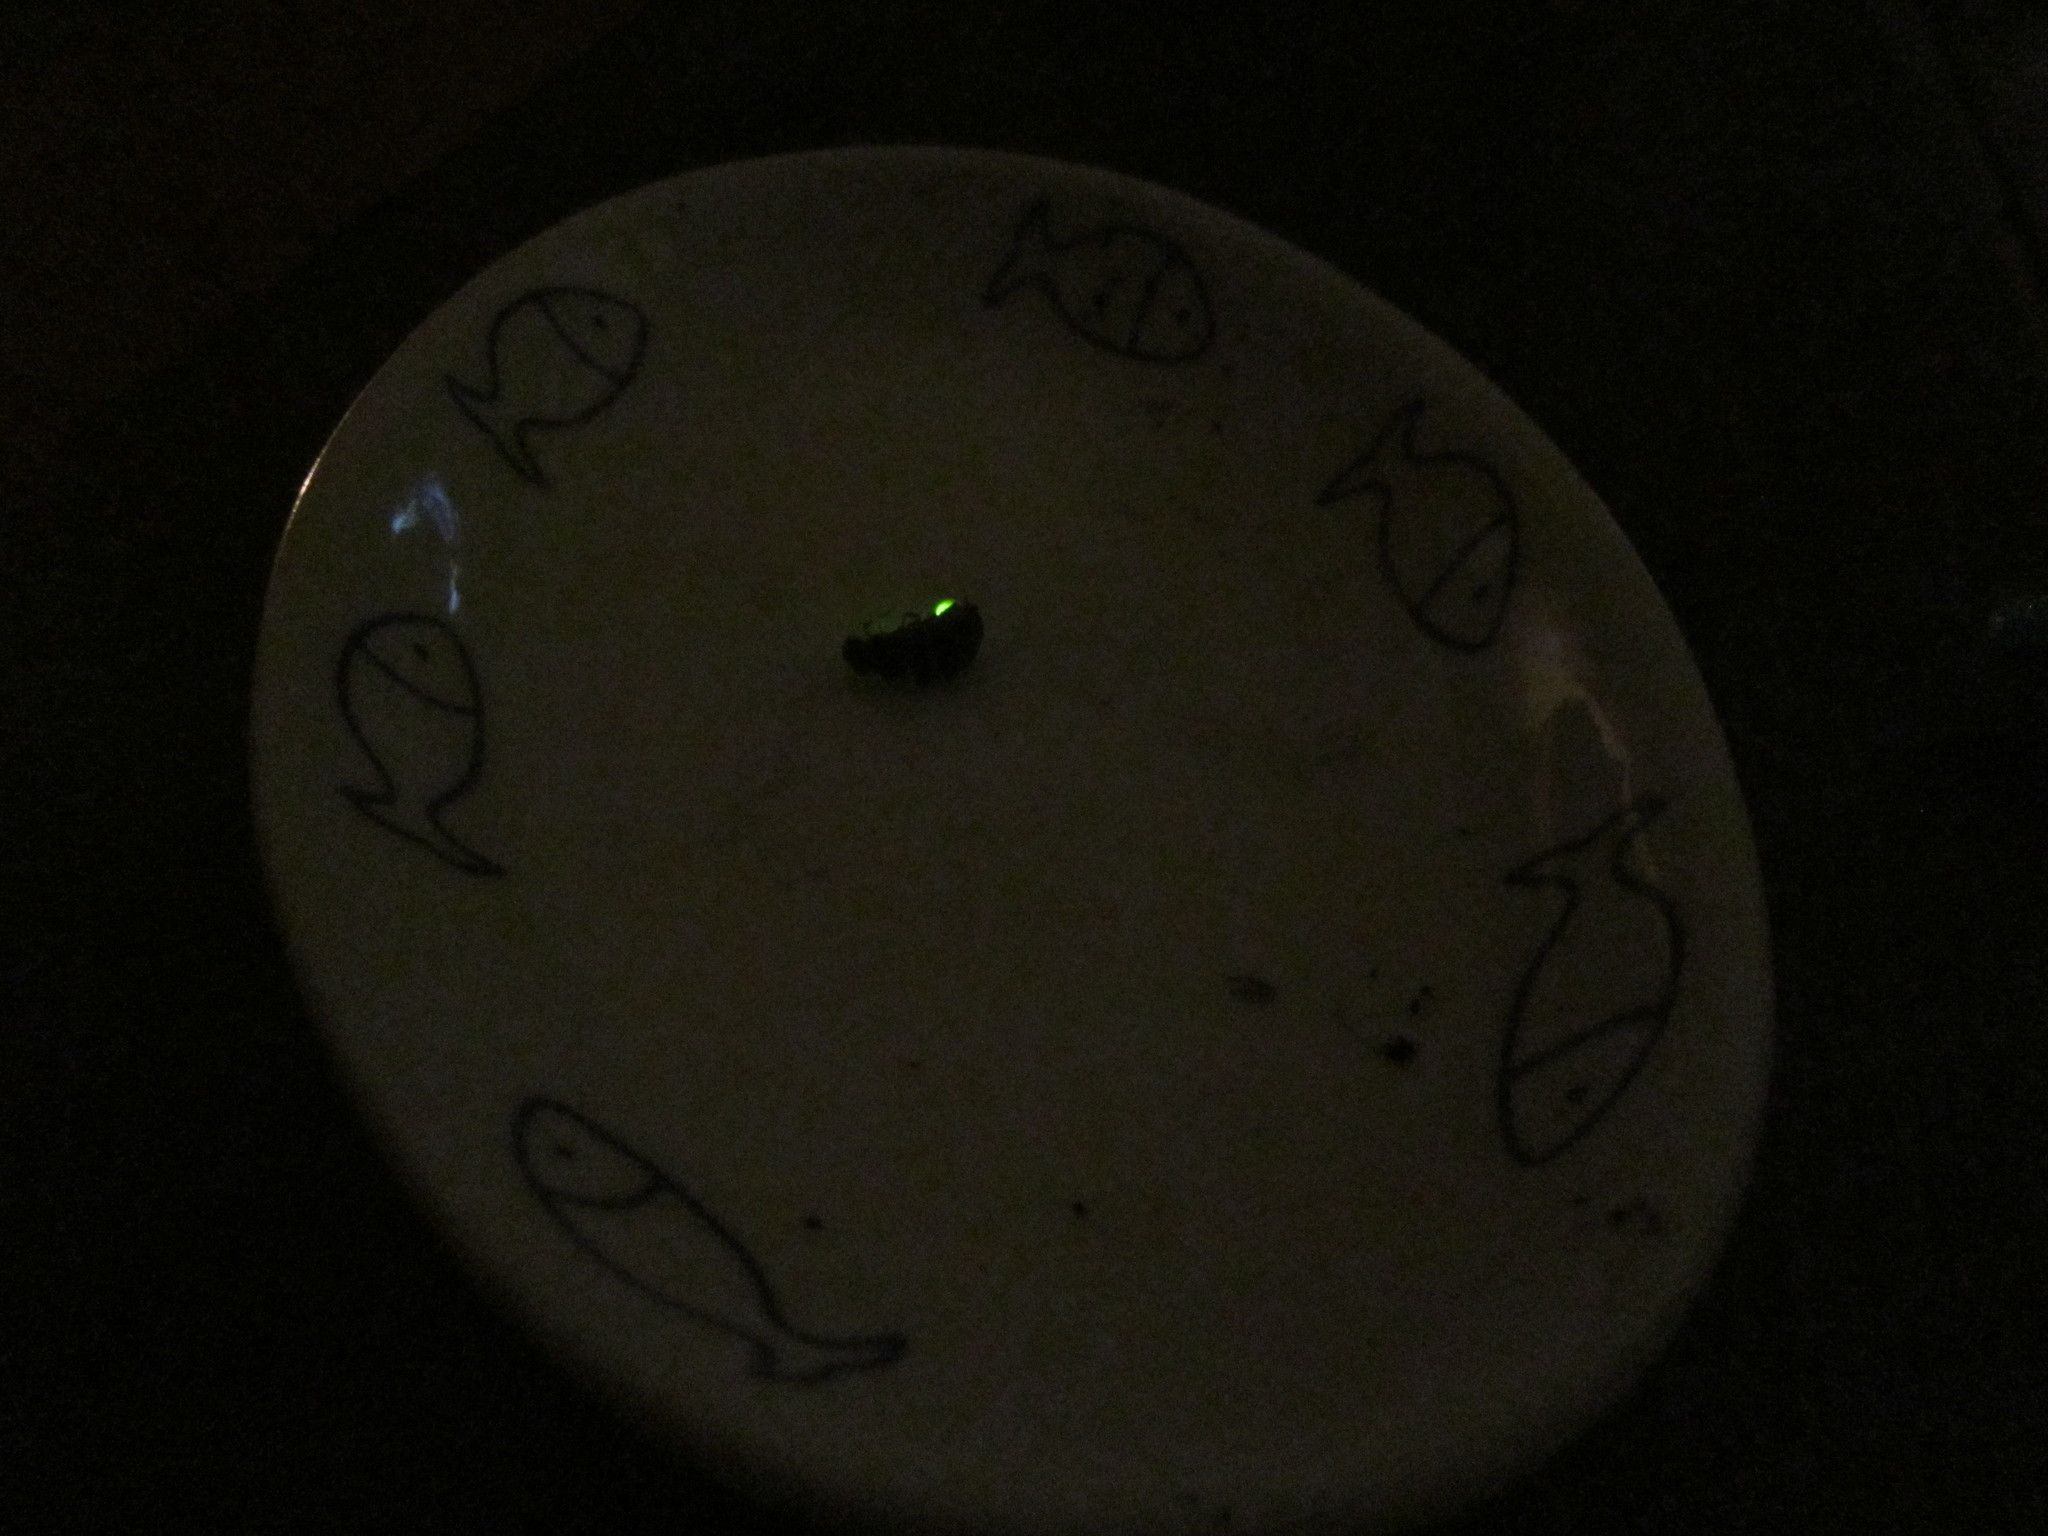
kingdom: Animalia
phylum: Arthropoda
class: Insecta
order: Coleoptera
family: Lampyridae
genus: Lampyris
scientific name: Lampyris noctiluca
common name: Glow-worm
